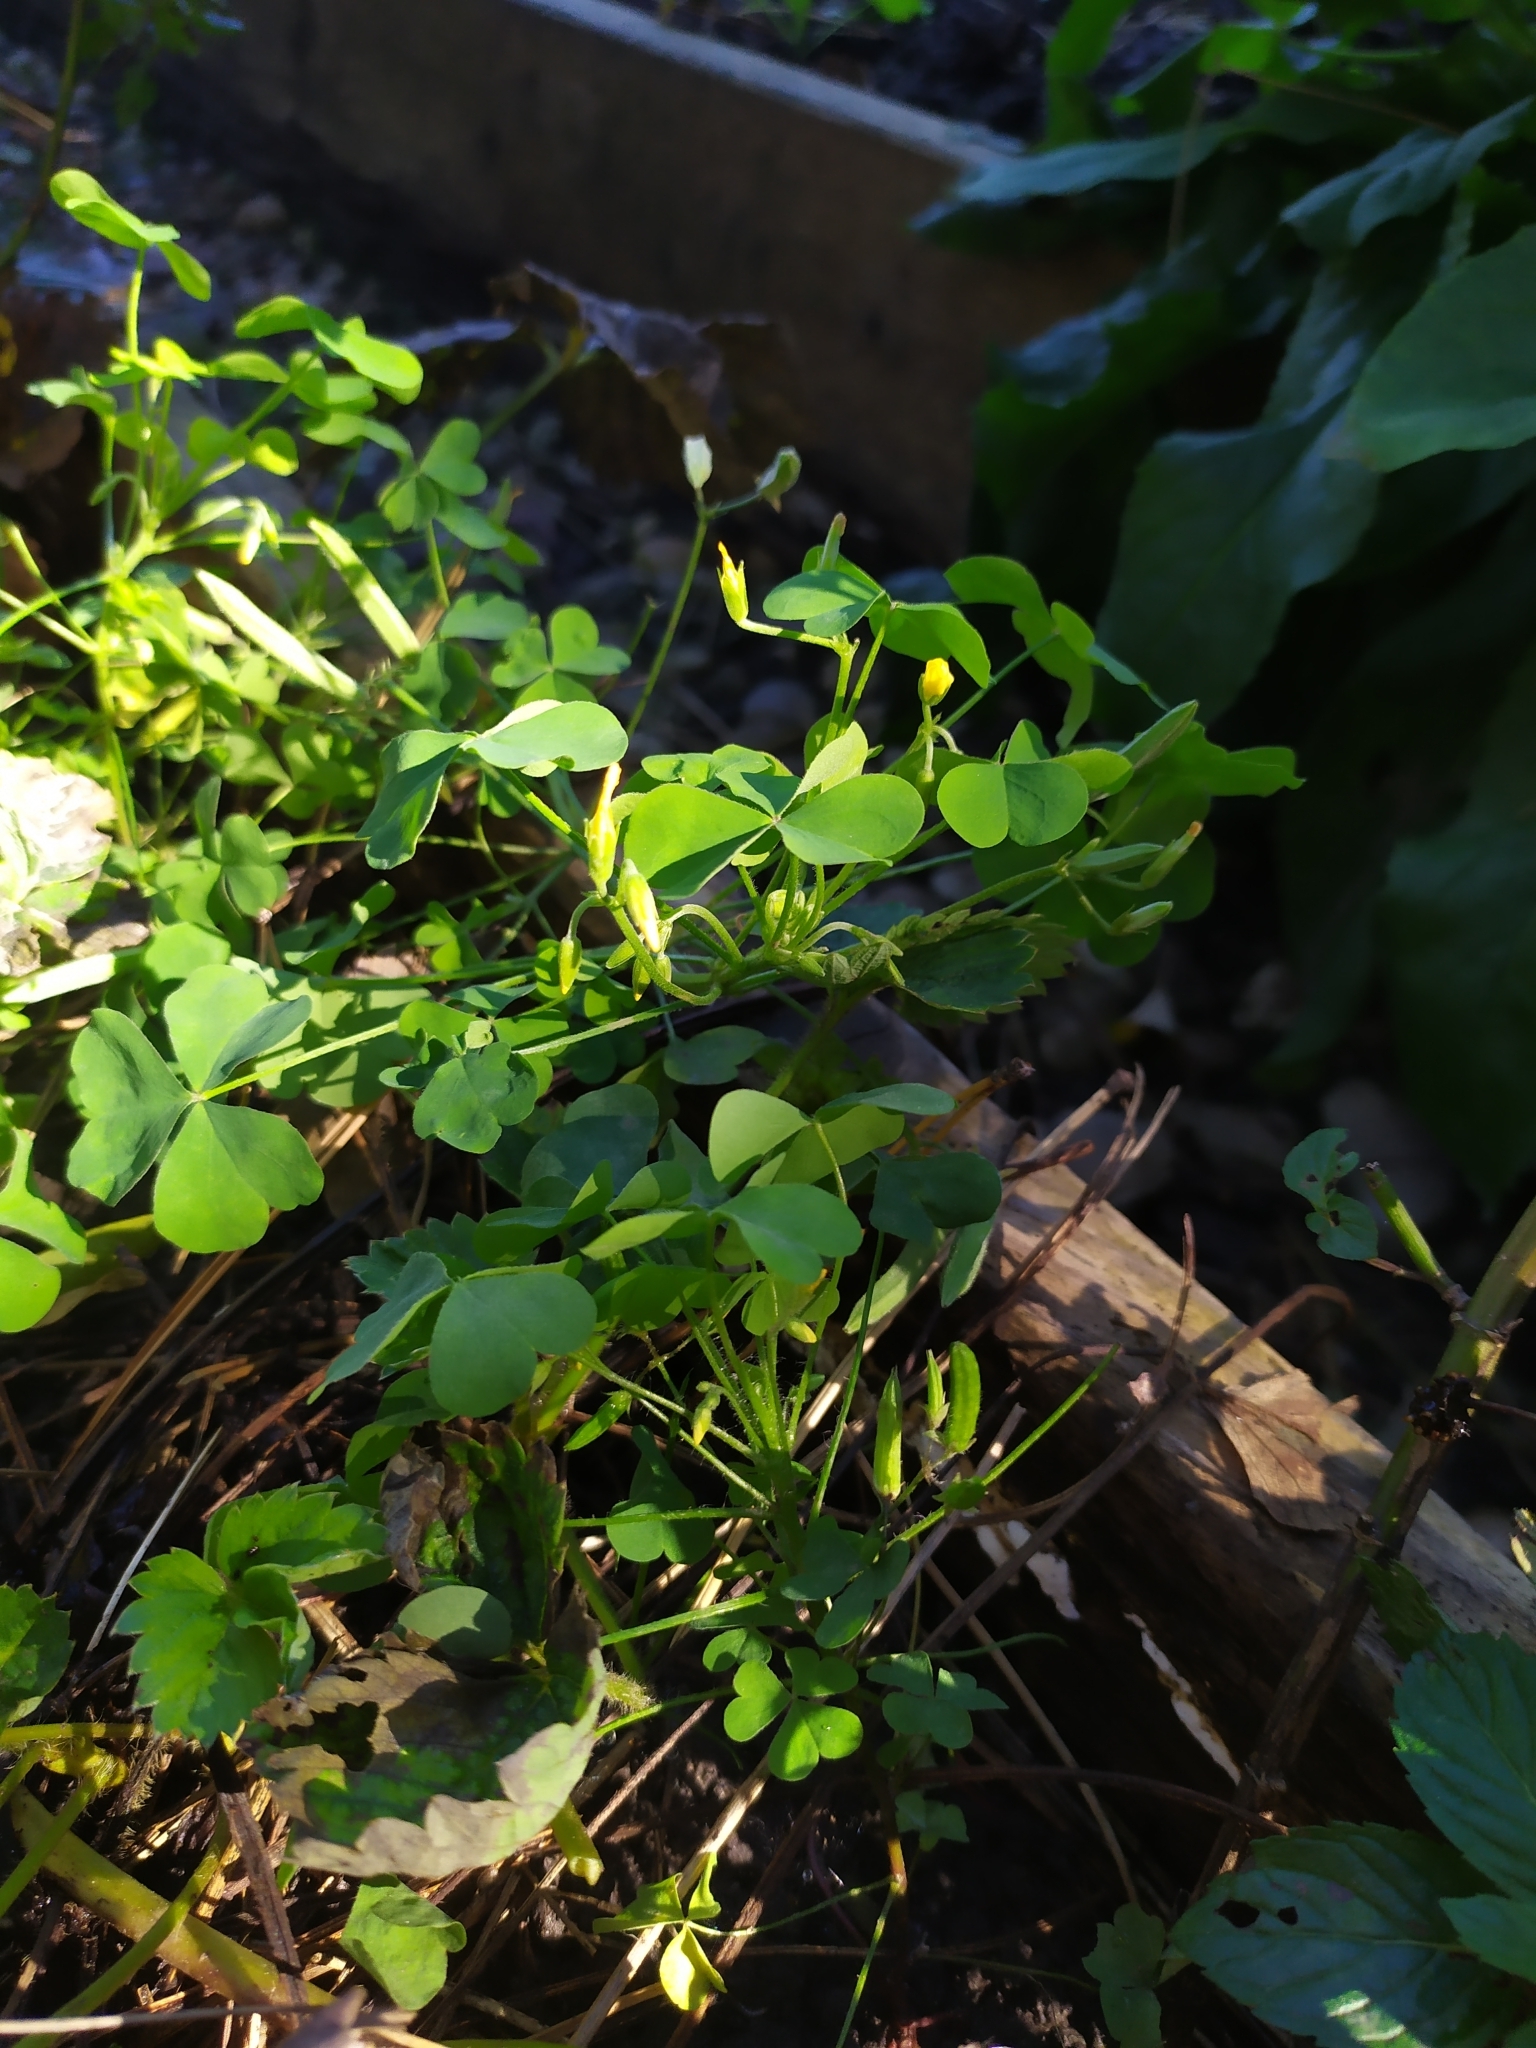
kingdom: Plantae
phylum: Tracheophyta
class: Magnoliopsida
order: Oxalidales
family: Oxalidaceae
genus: Oxalis
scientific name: Oxalis dillenii
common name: Sussex yellow-sorrel
